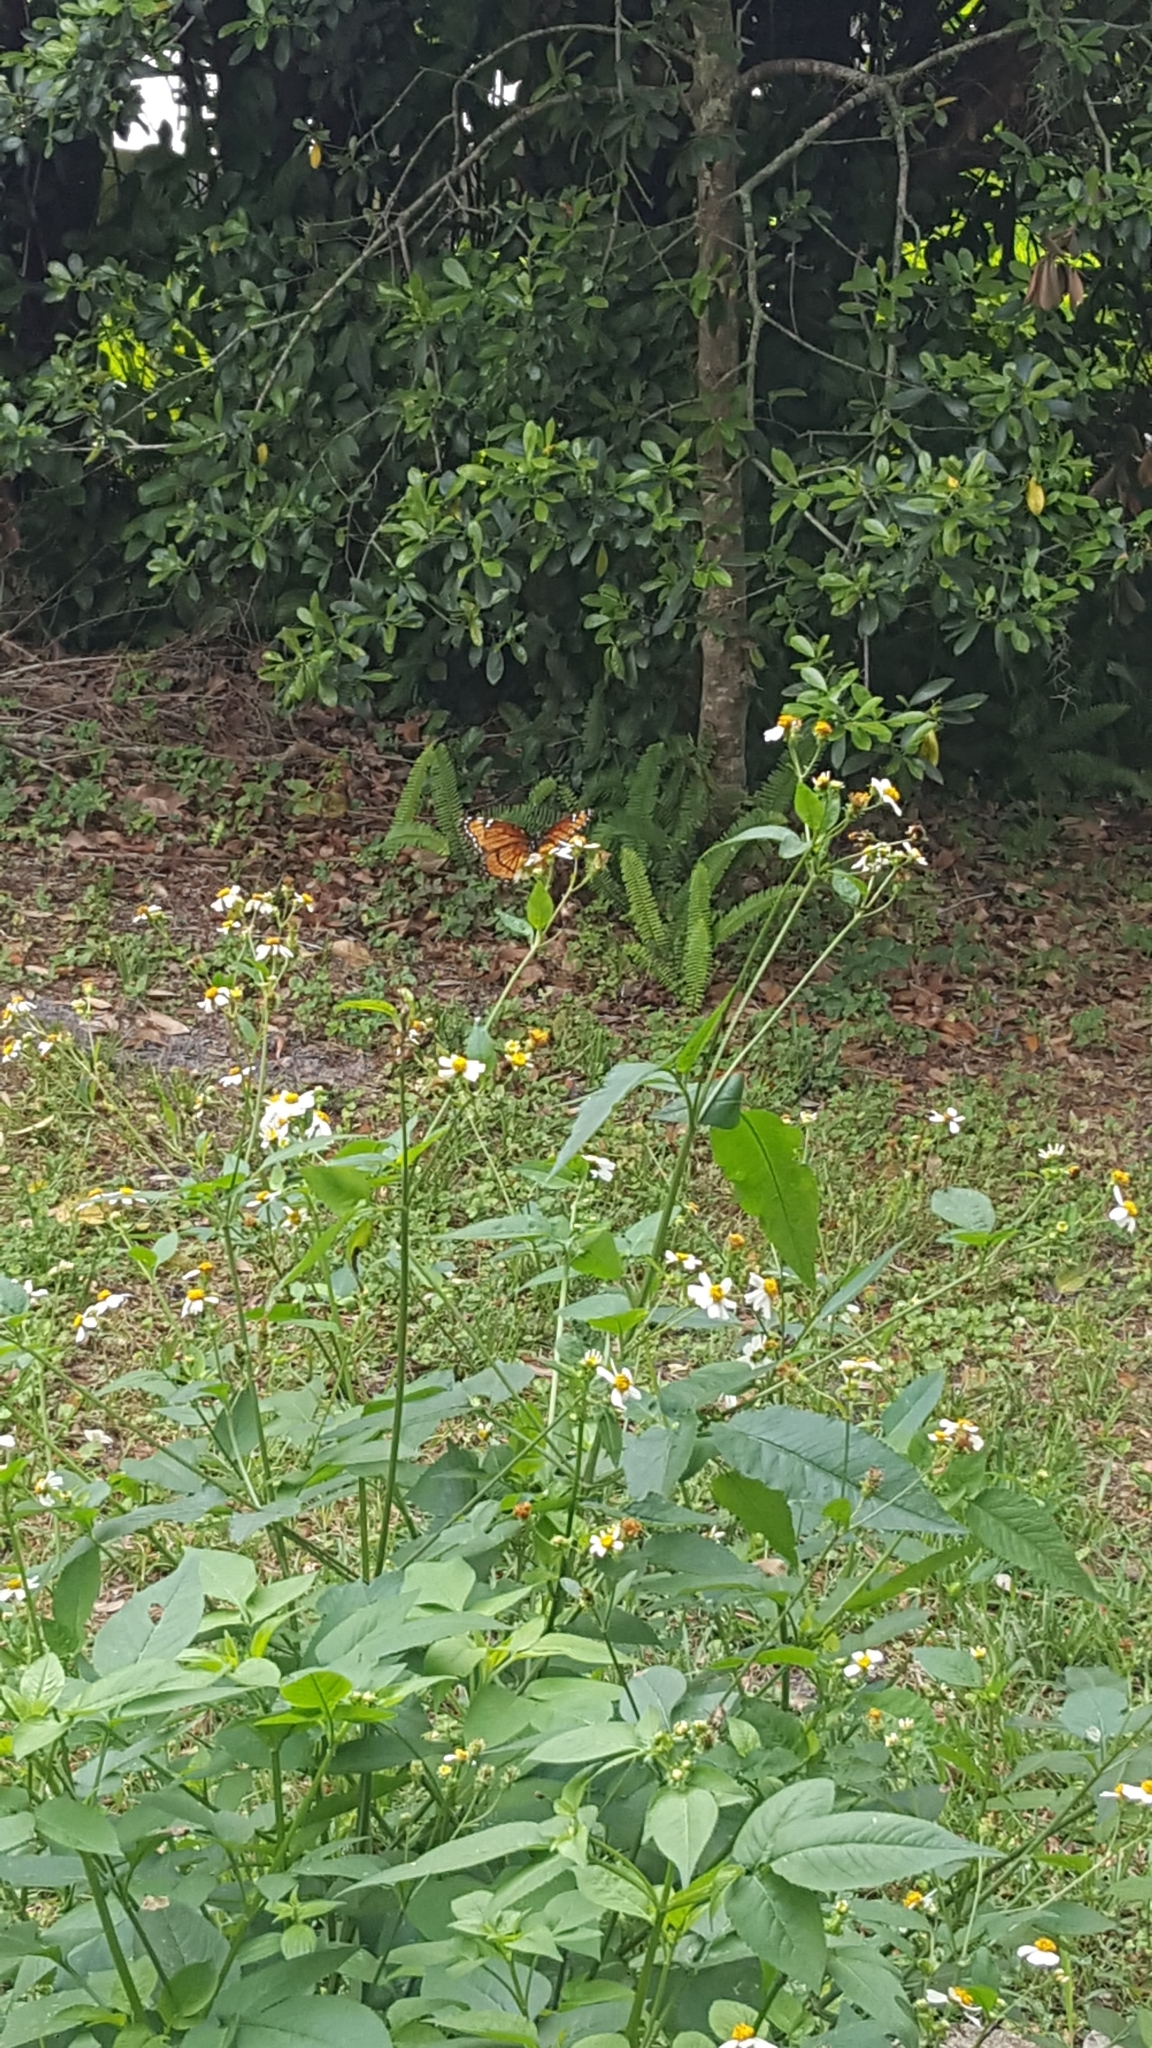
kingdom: Animalia
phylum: Arthropoda
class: Insecta
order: Lepidoptera
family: Nymphalidae
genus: Limenitis
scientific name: Limenitis archippus
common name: Viceroy
